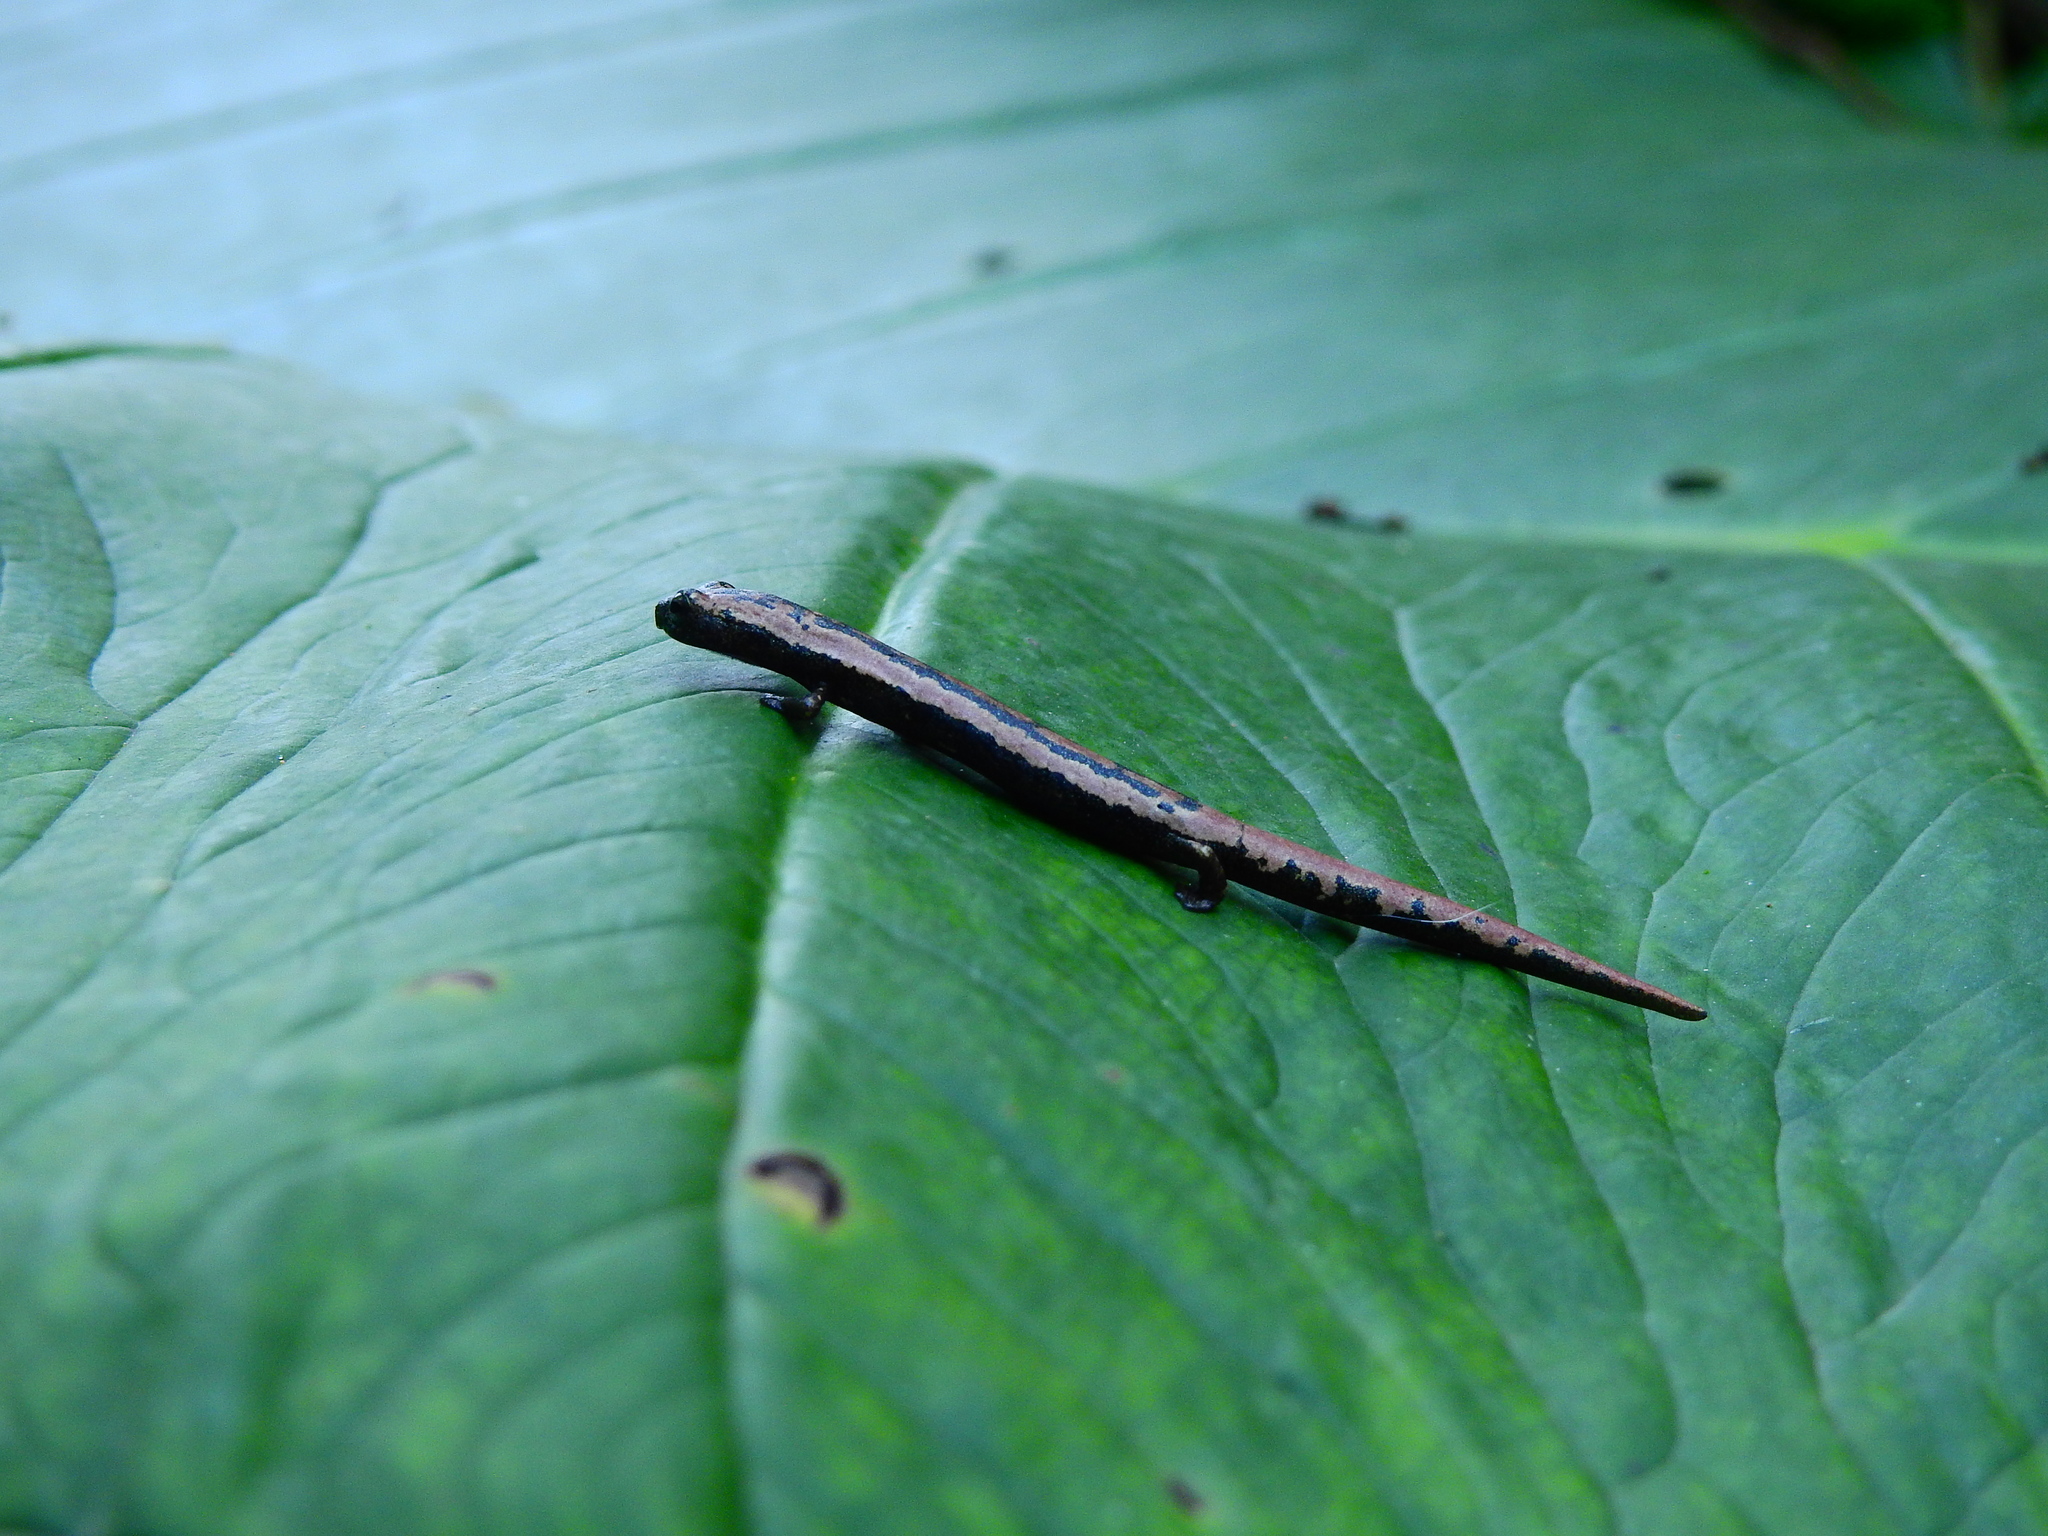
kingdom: Animalia
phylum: Chordata
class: Amphibia
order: Caudata
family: Plethodontidae
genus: Bolitoglossa
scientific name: Bolitoglossa mexicana
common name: Black-and-gold salamander
